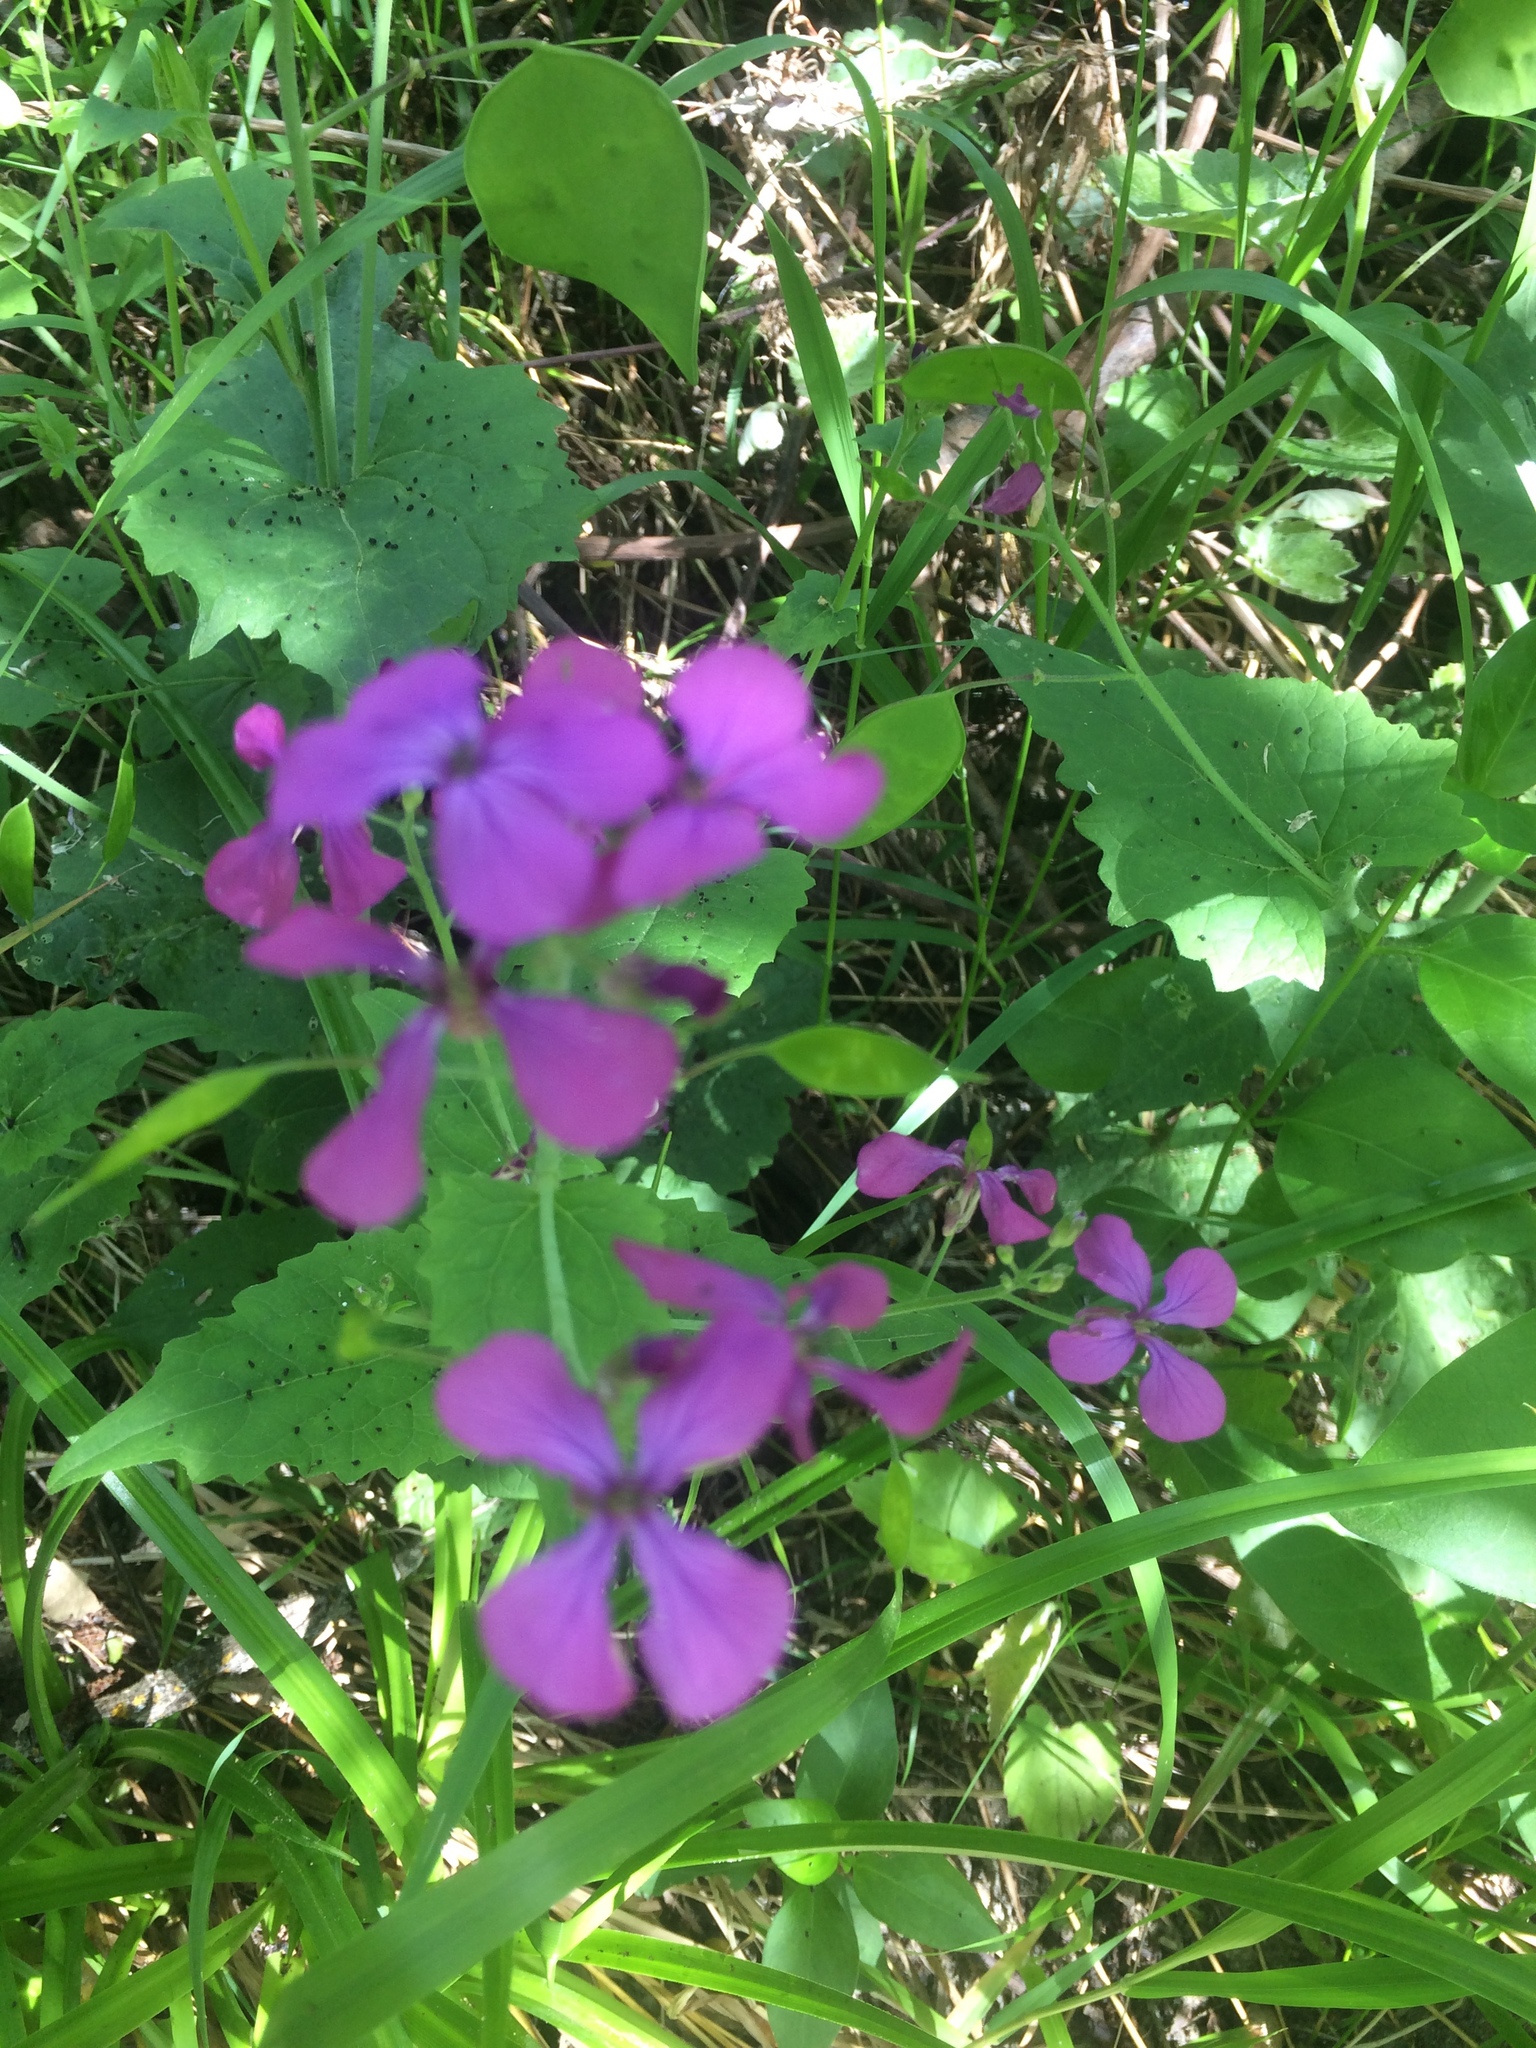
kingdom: Plantae
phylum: Tracheophyta
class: Magnoliopsida
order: Brassicales
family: Brassicaceae
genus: Lunaria
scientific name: Lunaria annua
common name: Honesty
